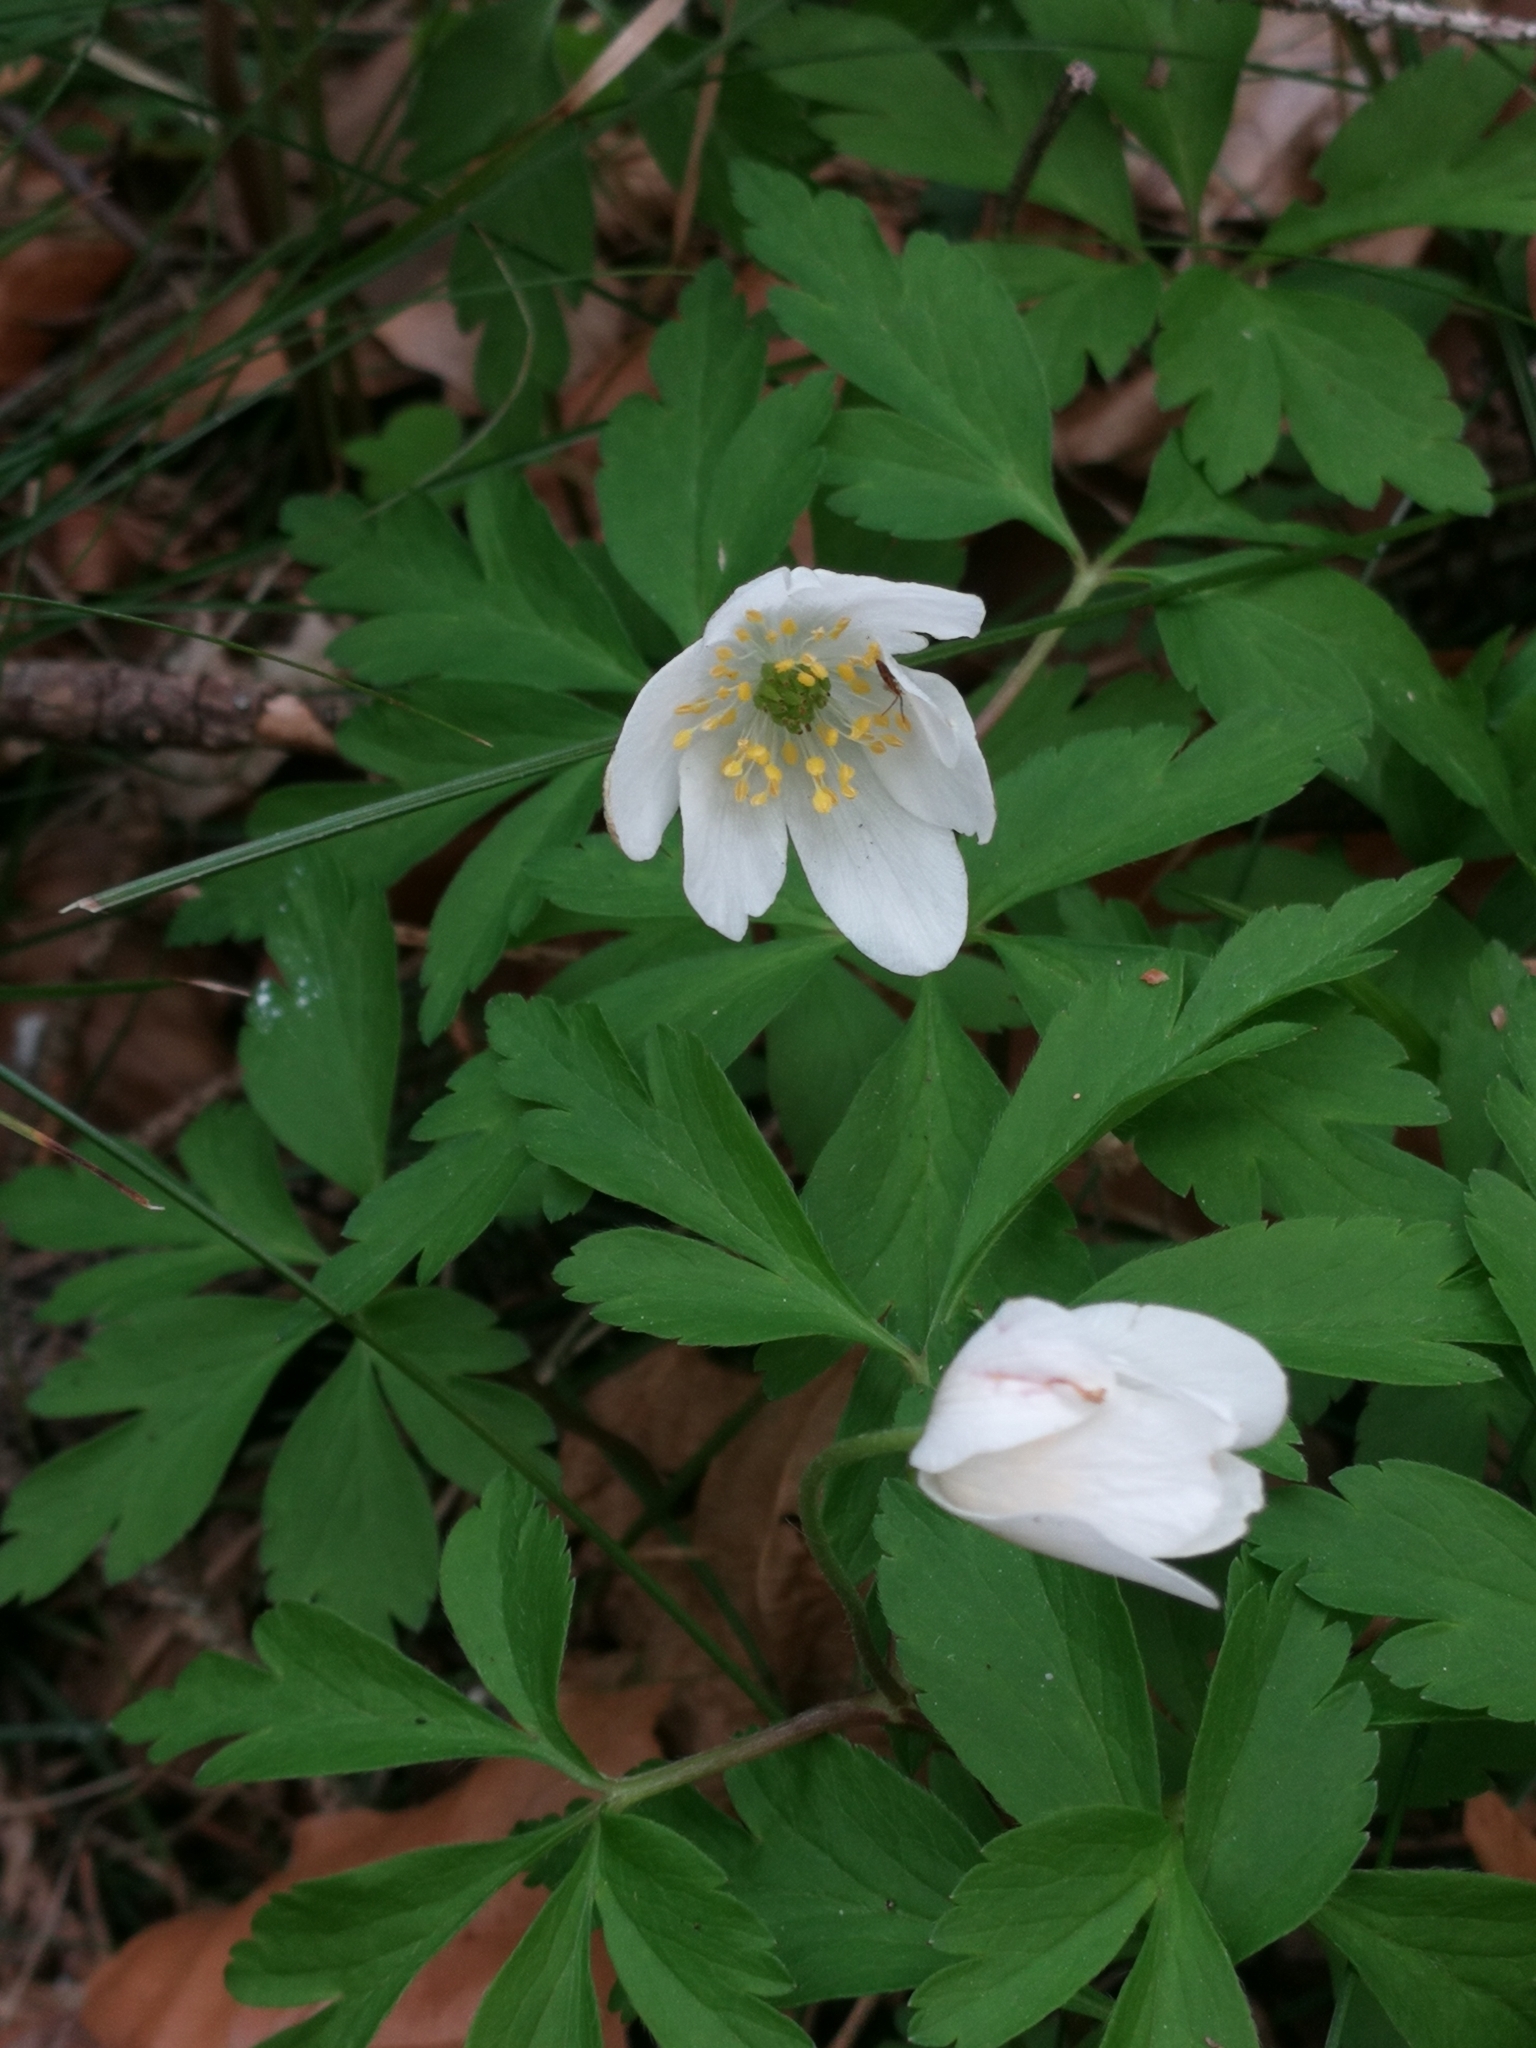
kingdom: Plantae
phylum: Tracheophyta
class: Magnoliopsida
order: Ranunculales
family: Ranunculaceae
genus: Anemone
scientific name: Anemone nemorosa
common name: Wood anemone
